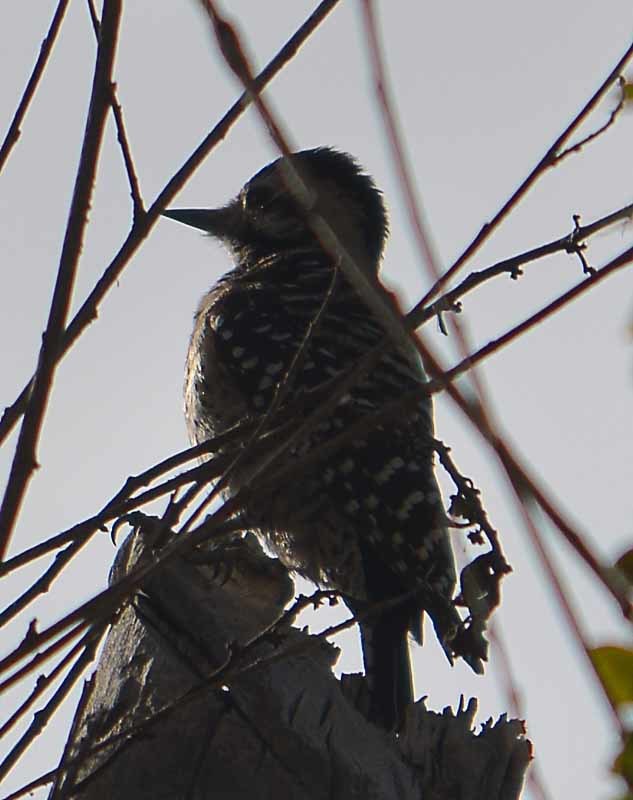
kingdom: Animalia
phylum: Chordata
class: Aves
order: Piciformes
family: Picidae
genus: Dryobates
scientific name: Dryobates scalaris
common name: Ladder-backed woodpecker
